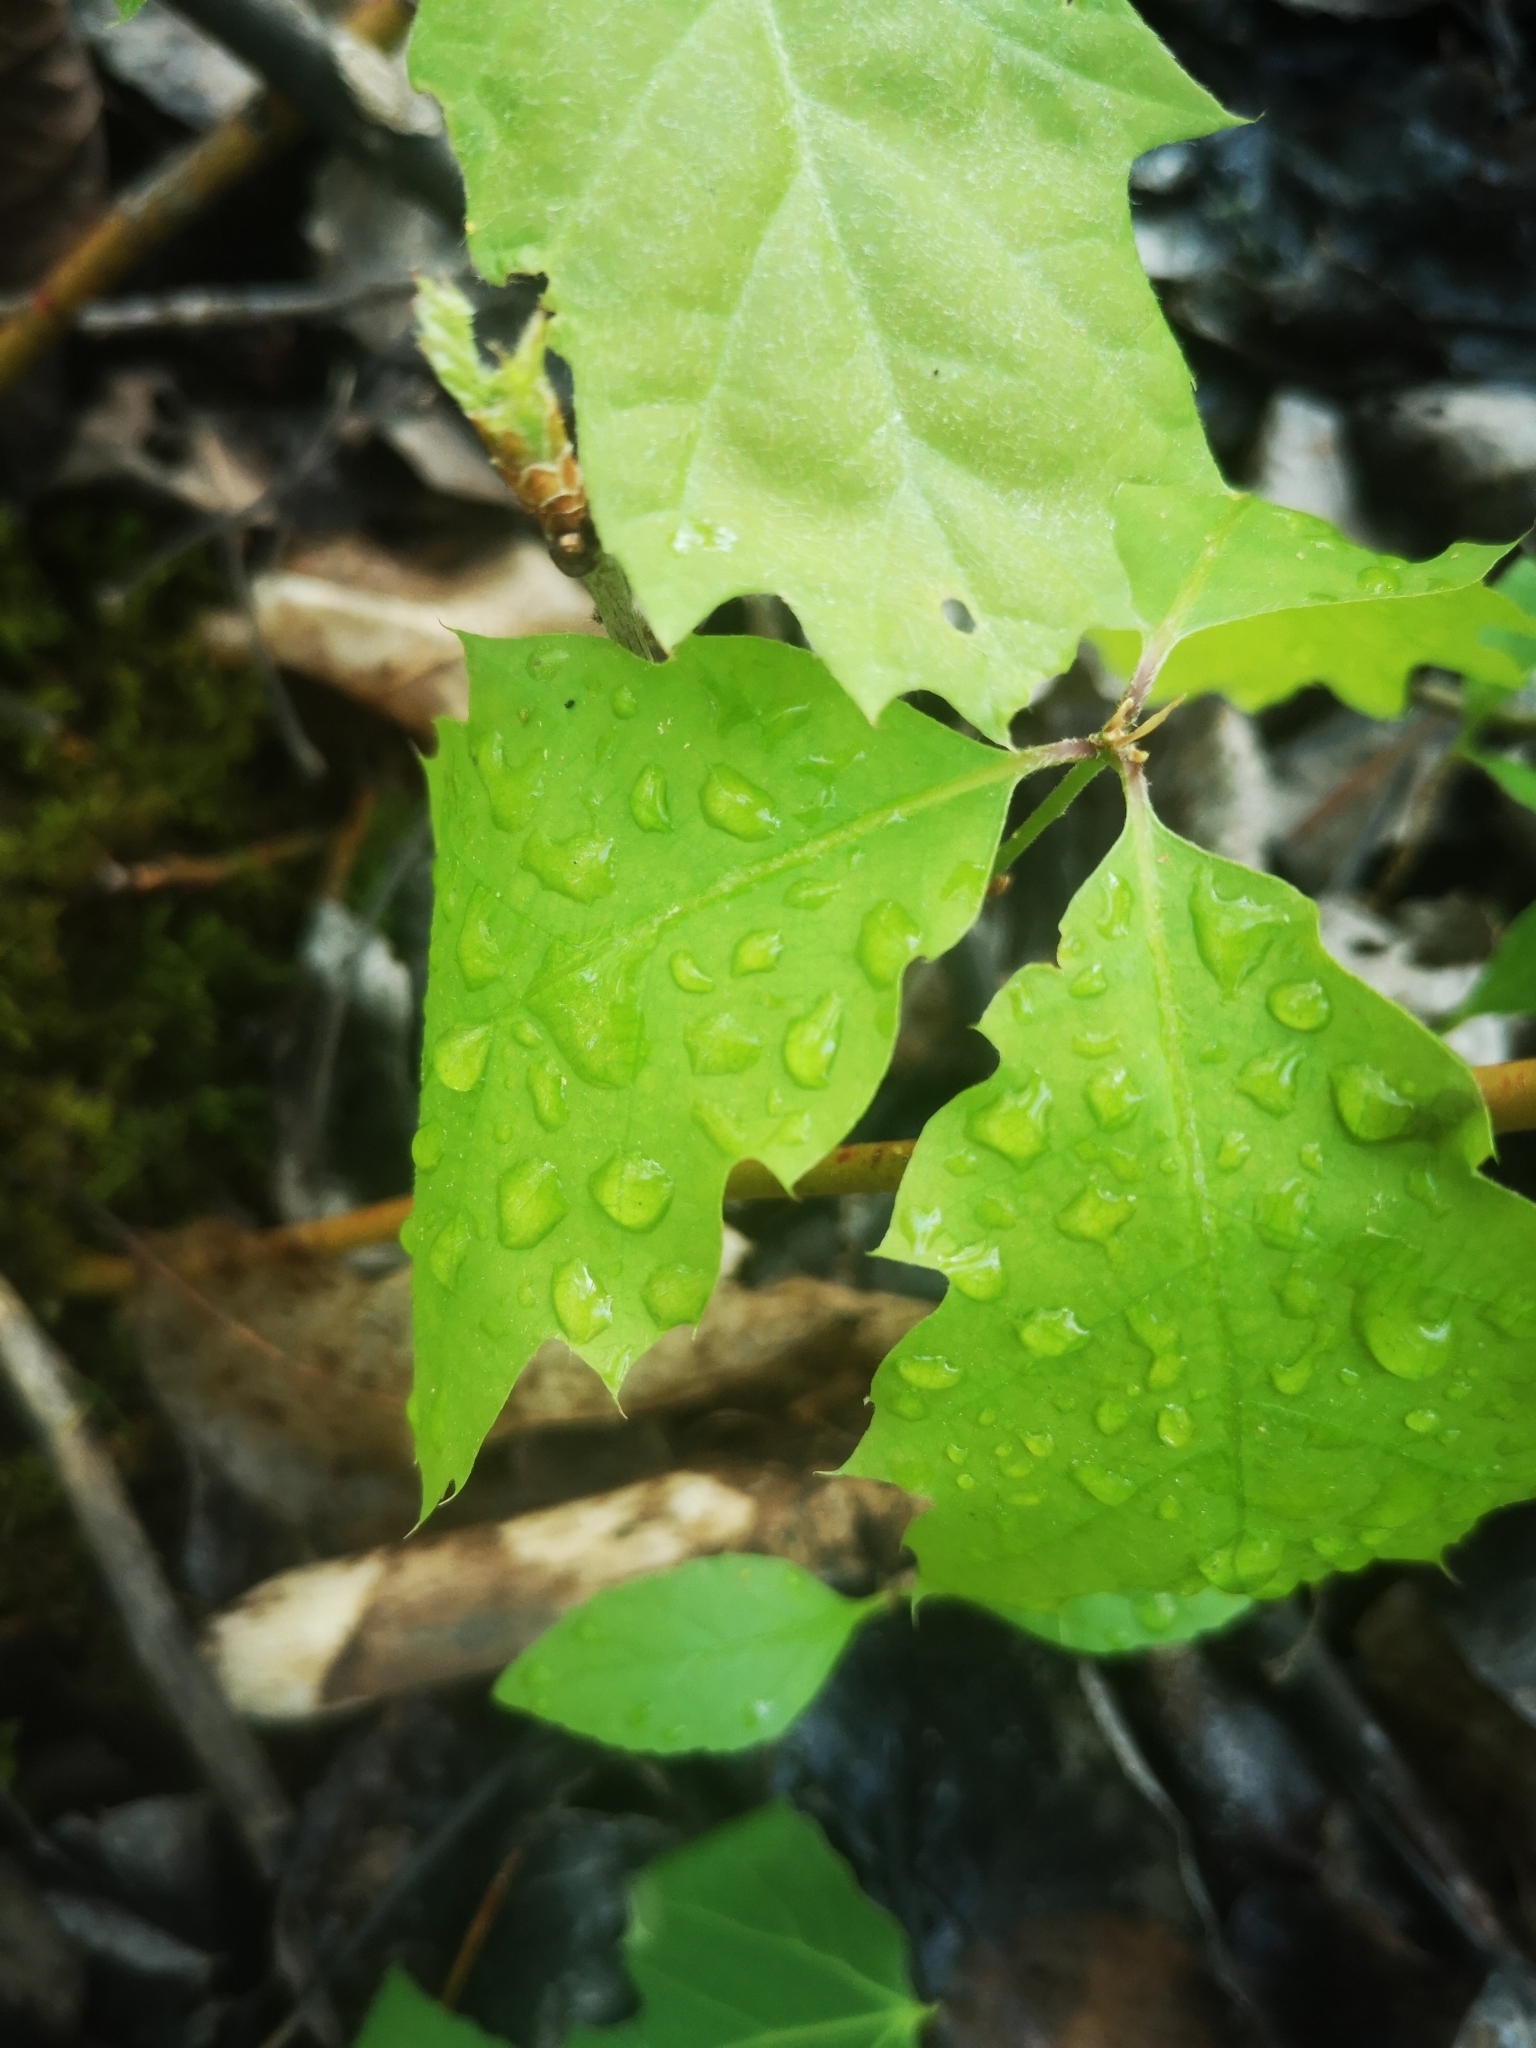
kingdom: Plantae
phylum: Tracheophyta
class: Magnoliopsida
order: Fagales
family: Fagaceae
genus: Quercus
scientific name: Quercus rubra
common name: Red oak
